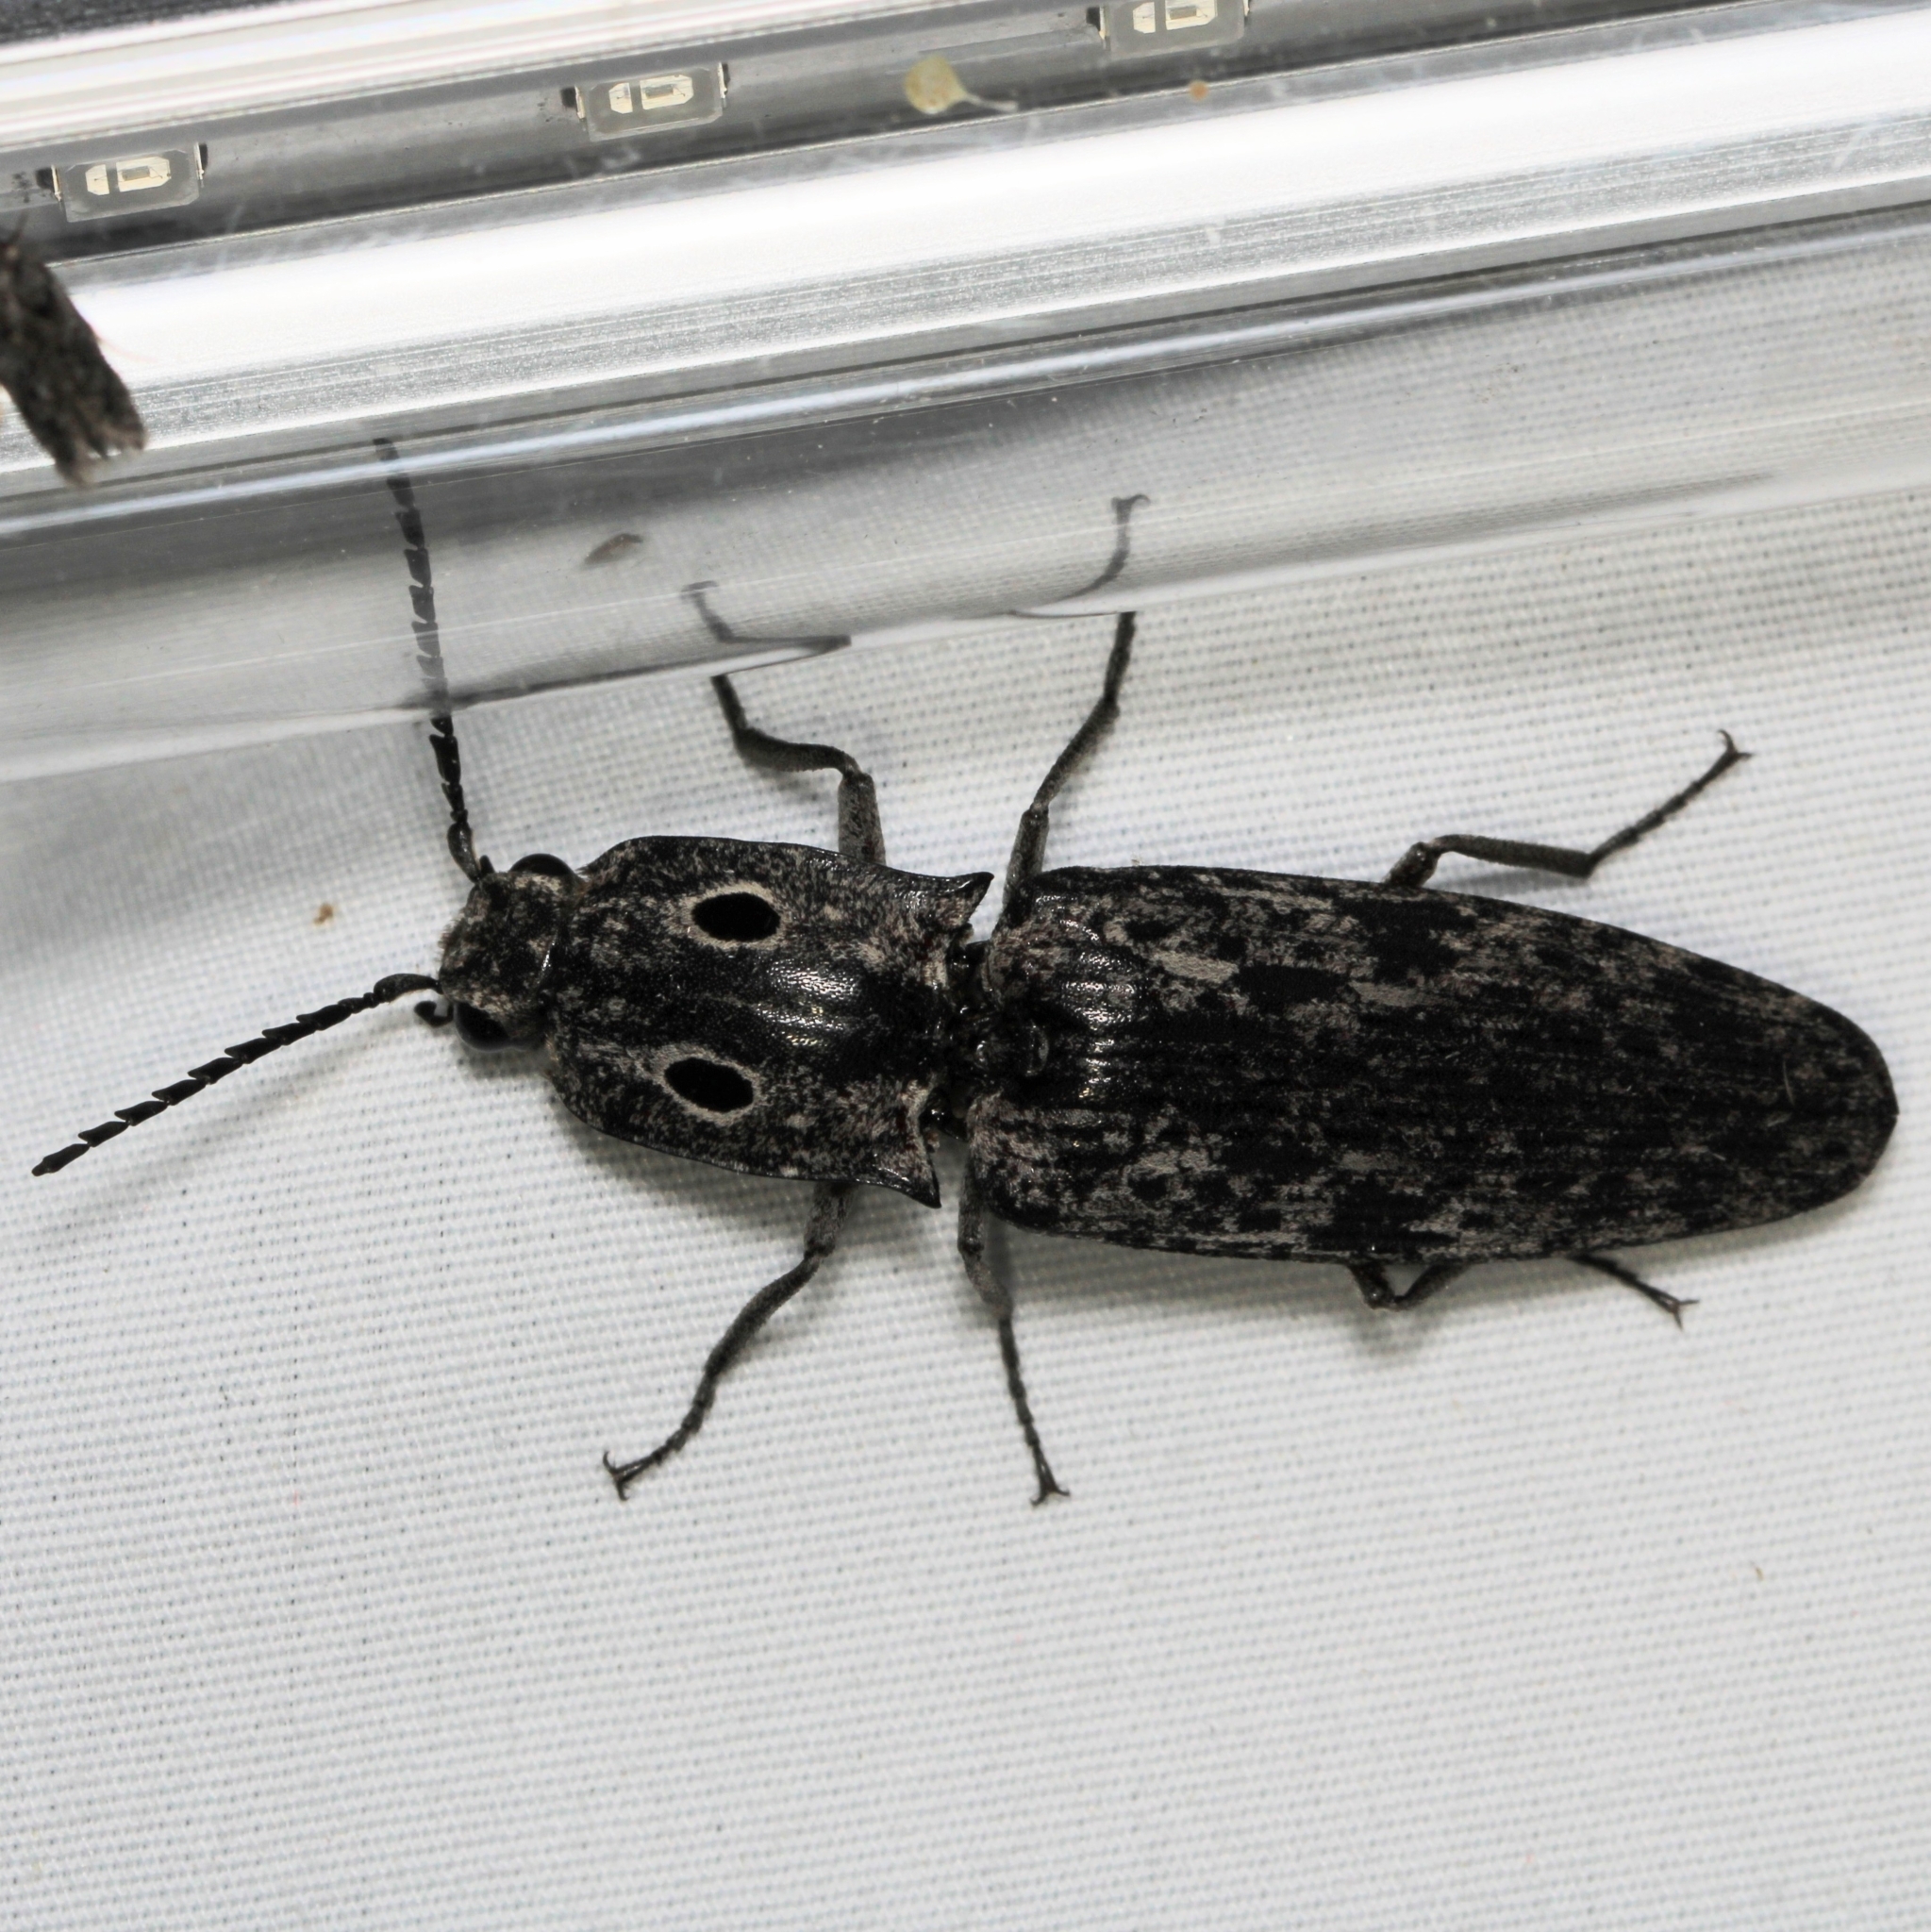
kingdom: Animalia
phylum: Arthropoda
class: Insecta
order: Coleoptera
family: Elateridae
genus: Alaus
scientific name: Alaus myops
